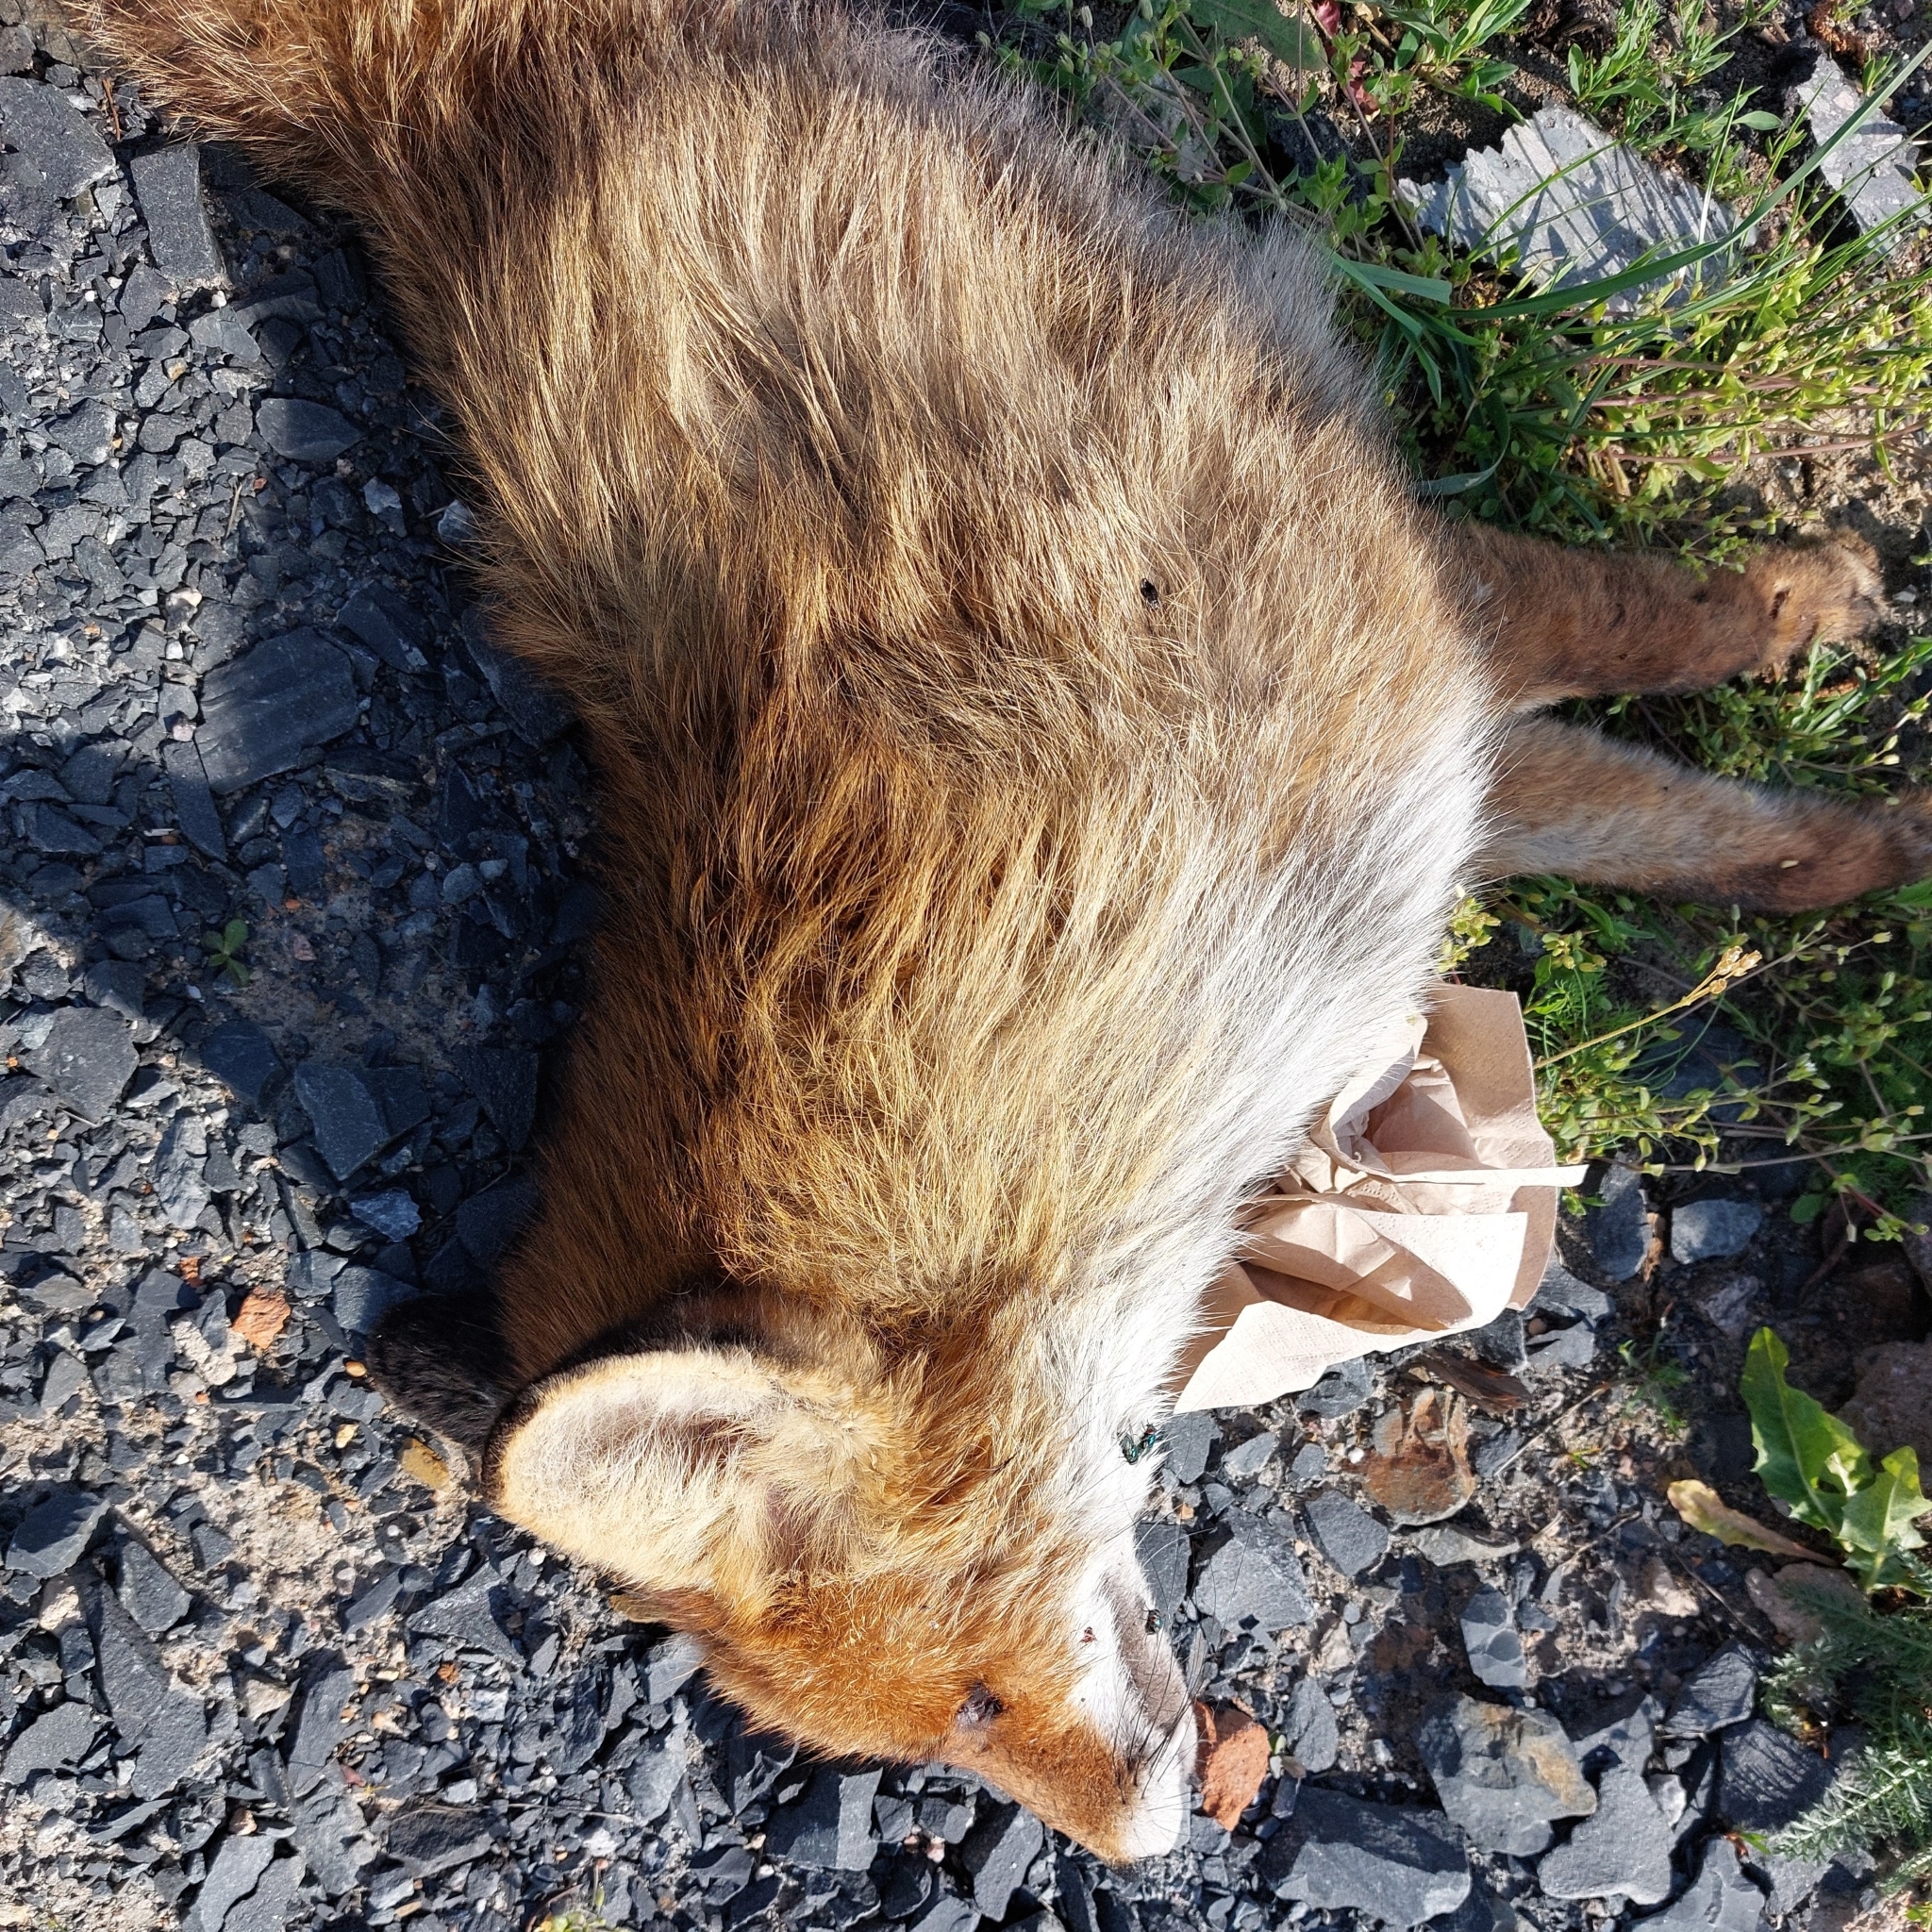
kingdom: Animalia
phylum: Chordata
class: Mammalia
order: Carnivora
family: Canidae
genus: Vulpes
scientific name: Vulpes vulpes
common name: Red fox
